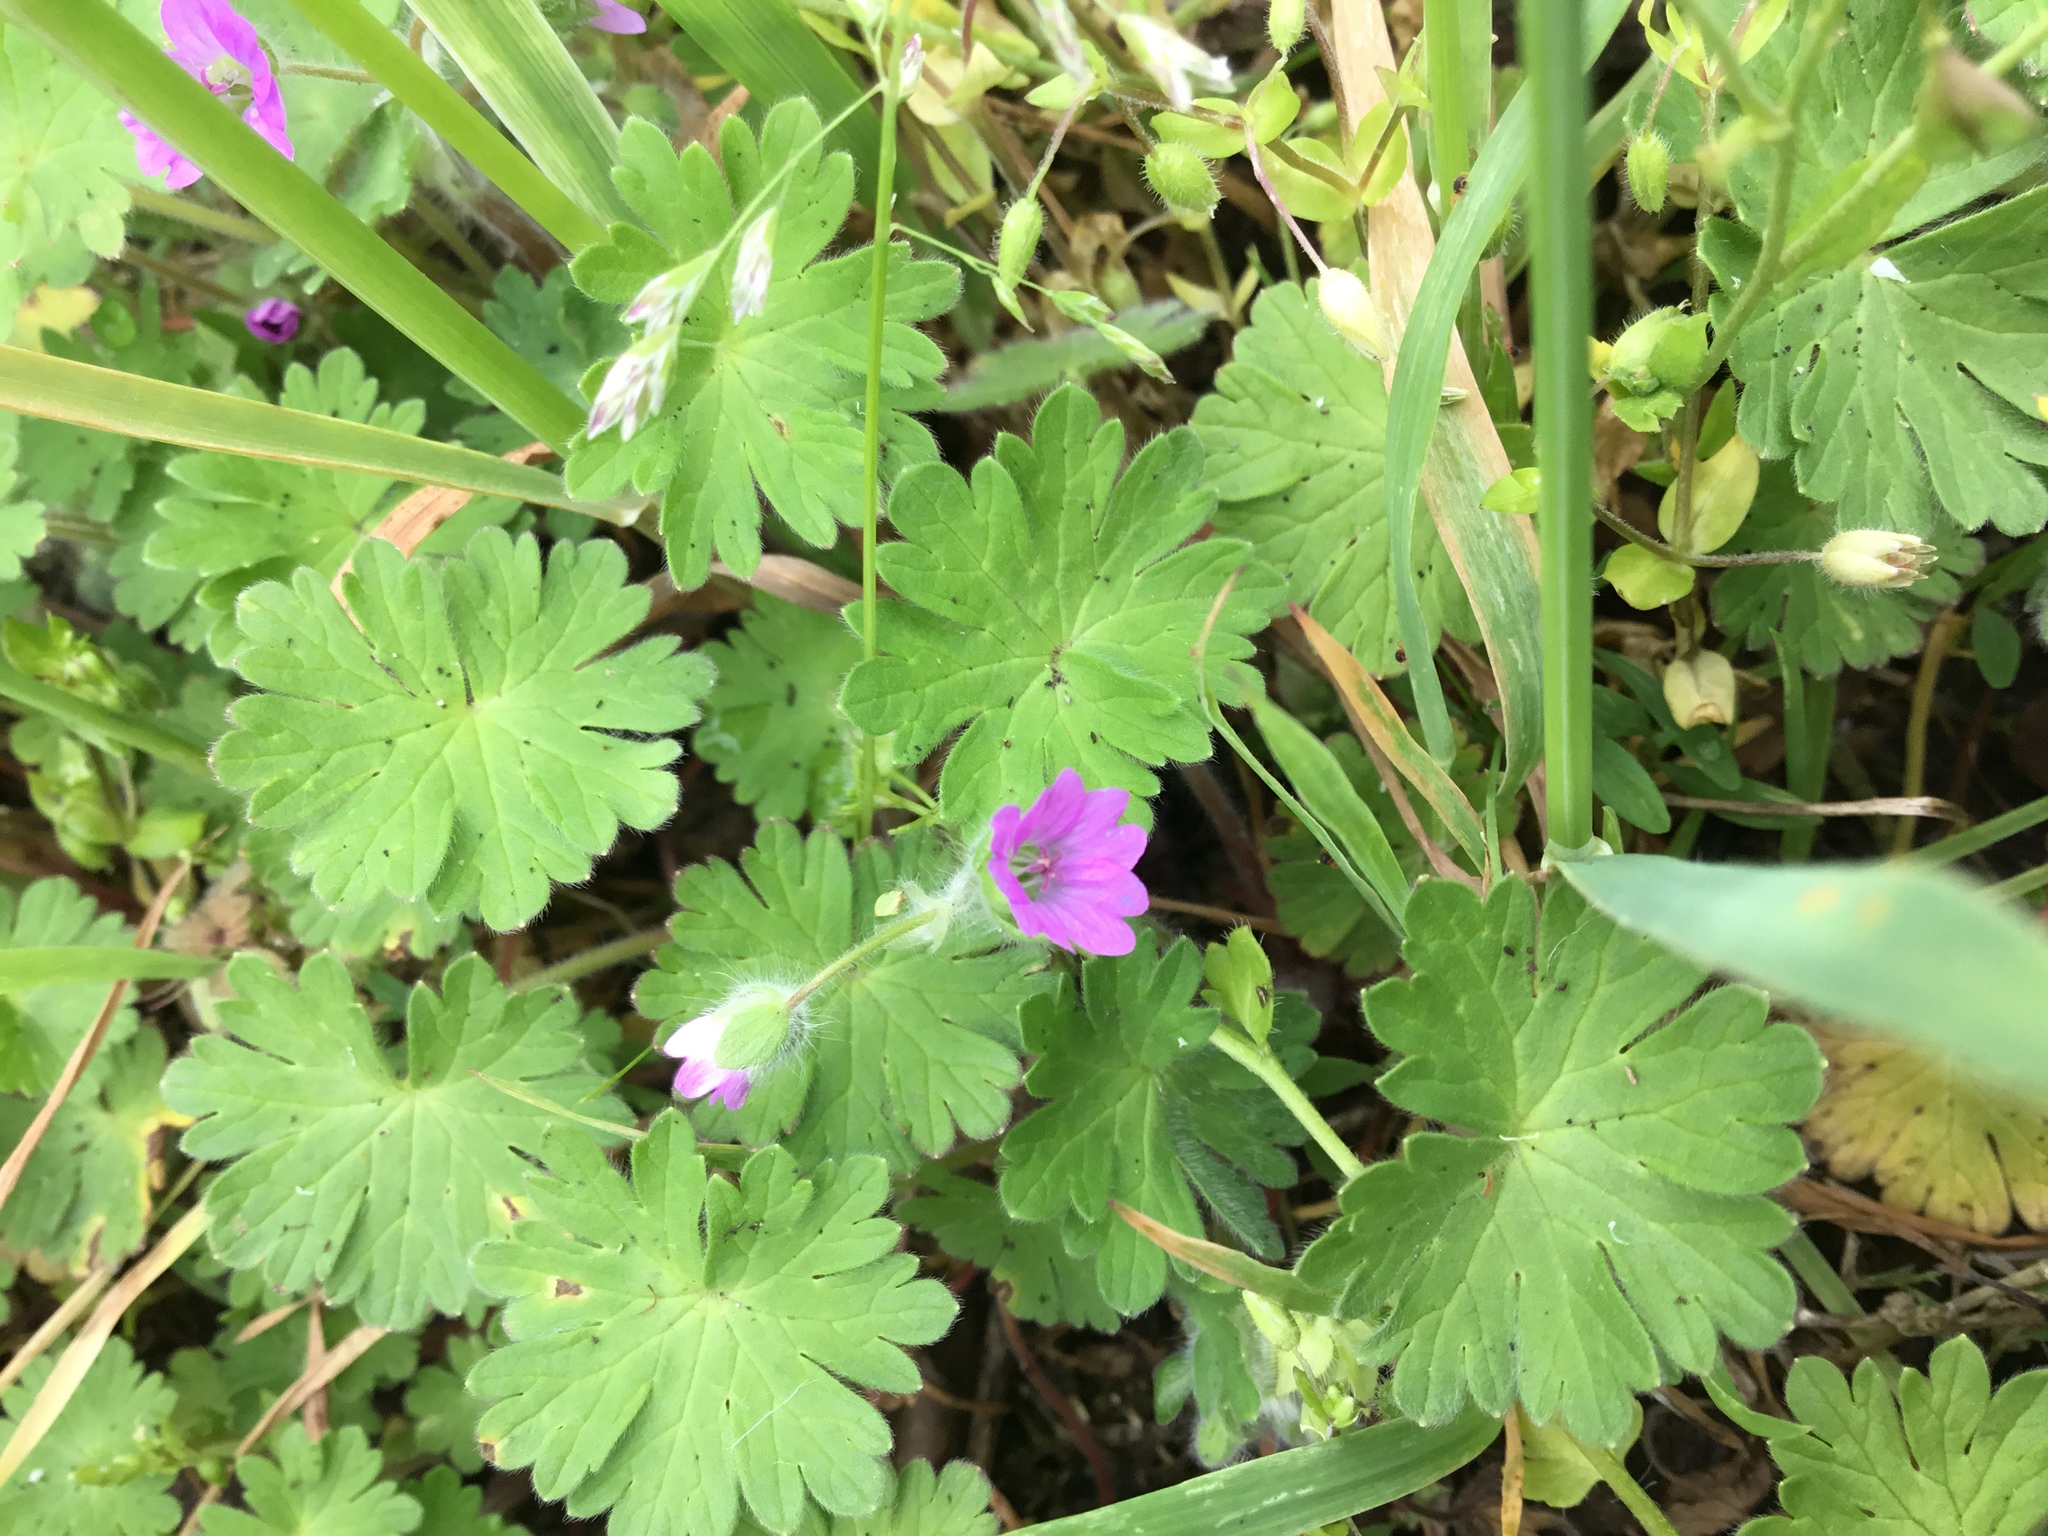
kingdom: Plantae
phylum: Tracheophyta
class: Magnoliopsida
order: Geraniales
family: Geraniaceae
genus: Geranium
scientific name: Geranium molle
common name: Dove's-foot crane's-bill
